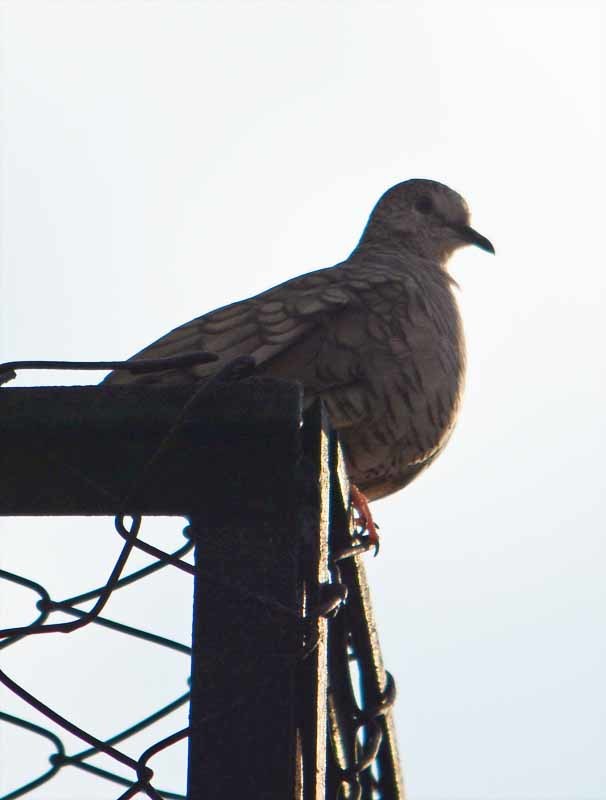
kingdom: Animalia
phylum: Chordata
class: Aves
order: Columbiformes
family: Columbidae
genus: Columbina
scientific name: Columbina inca
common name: Inca dove
